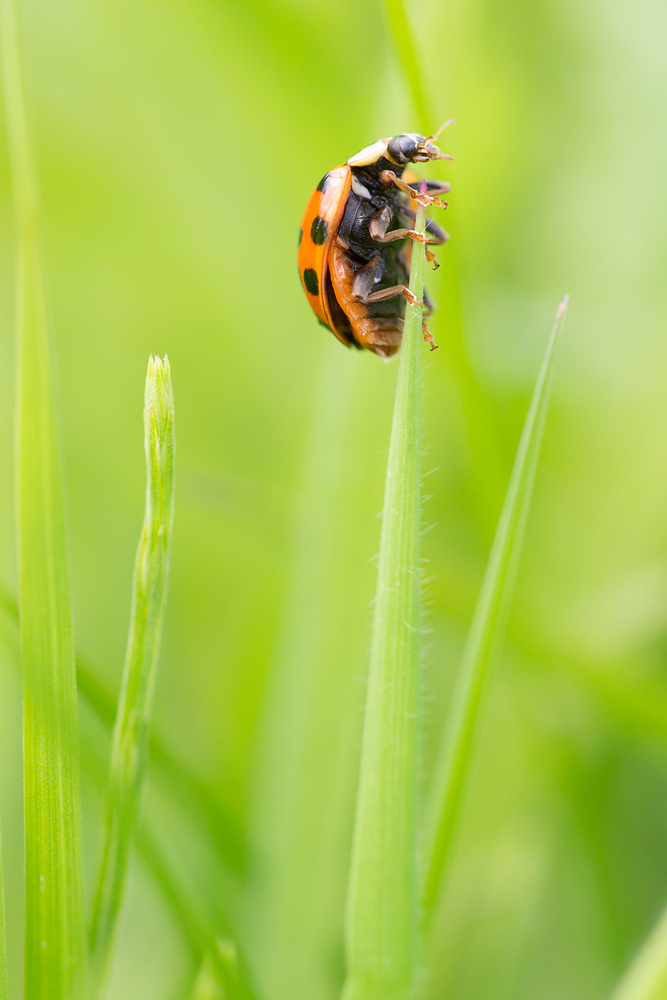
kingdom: Animalia
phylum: Arthropoda
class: Insecta
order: Coleoptera
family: Coccinellidae
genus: Harmonia
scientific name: Harmonia axyridis
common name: Harlequin ladybird
